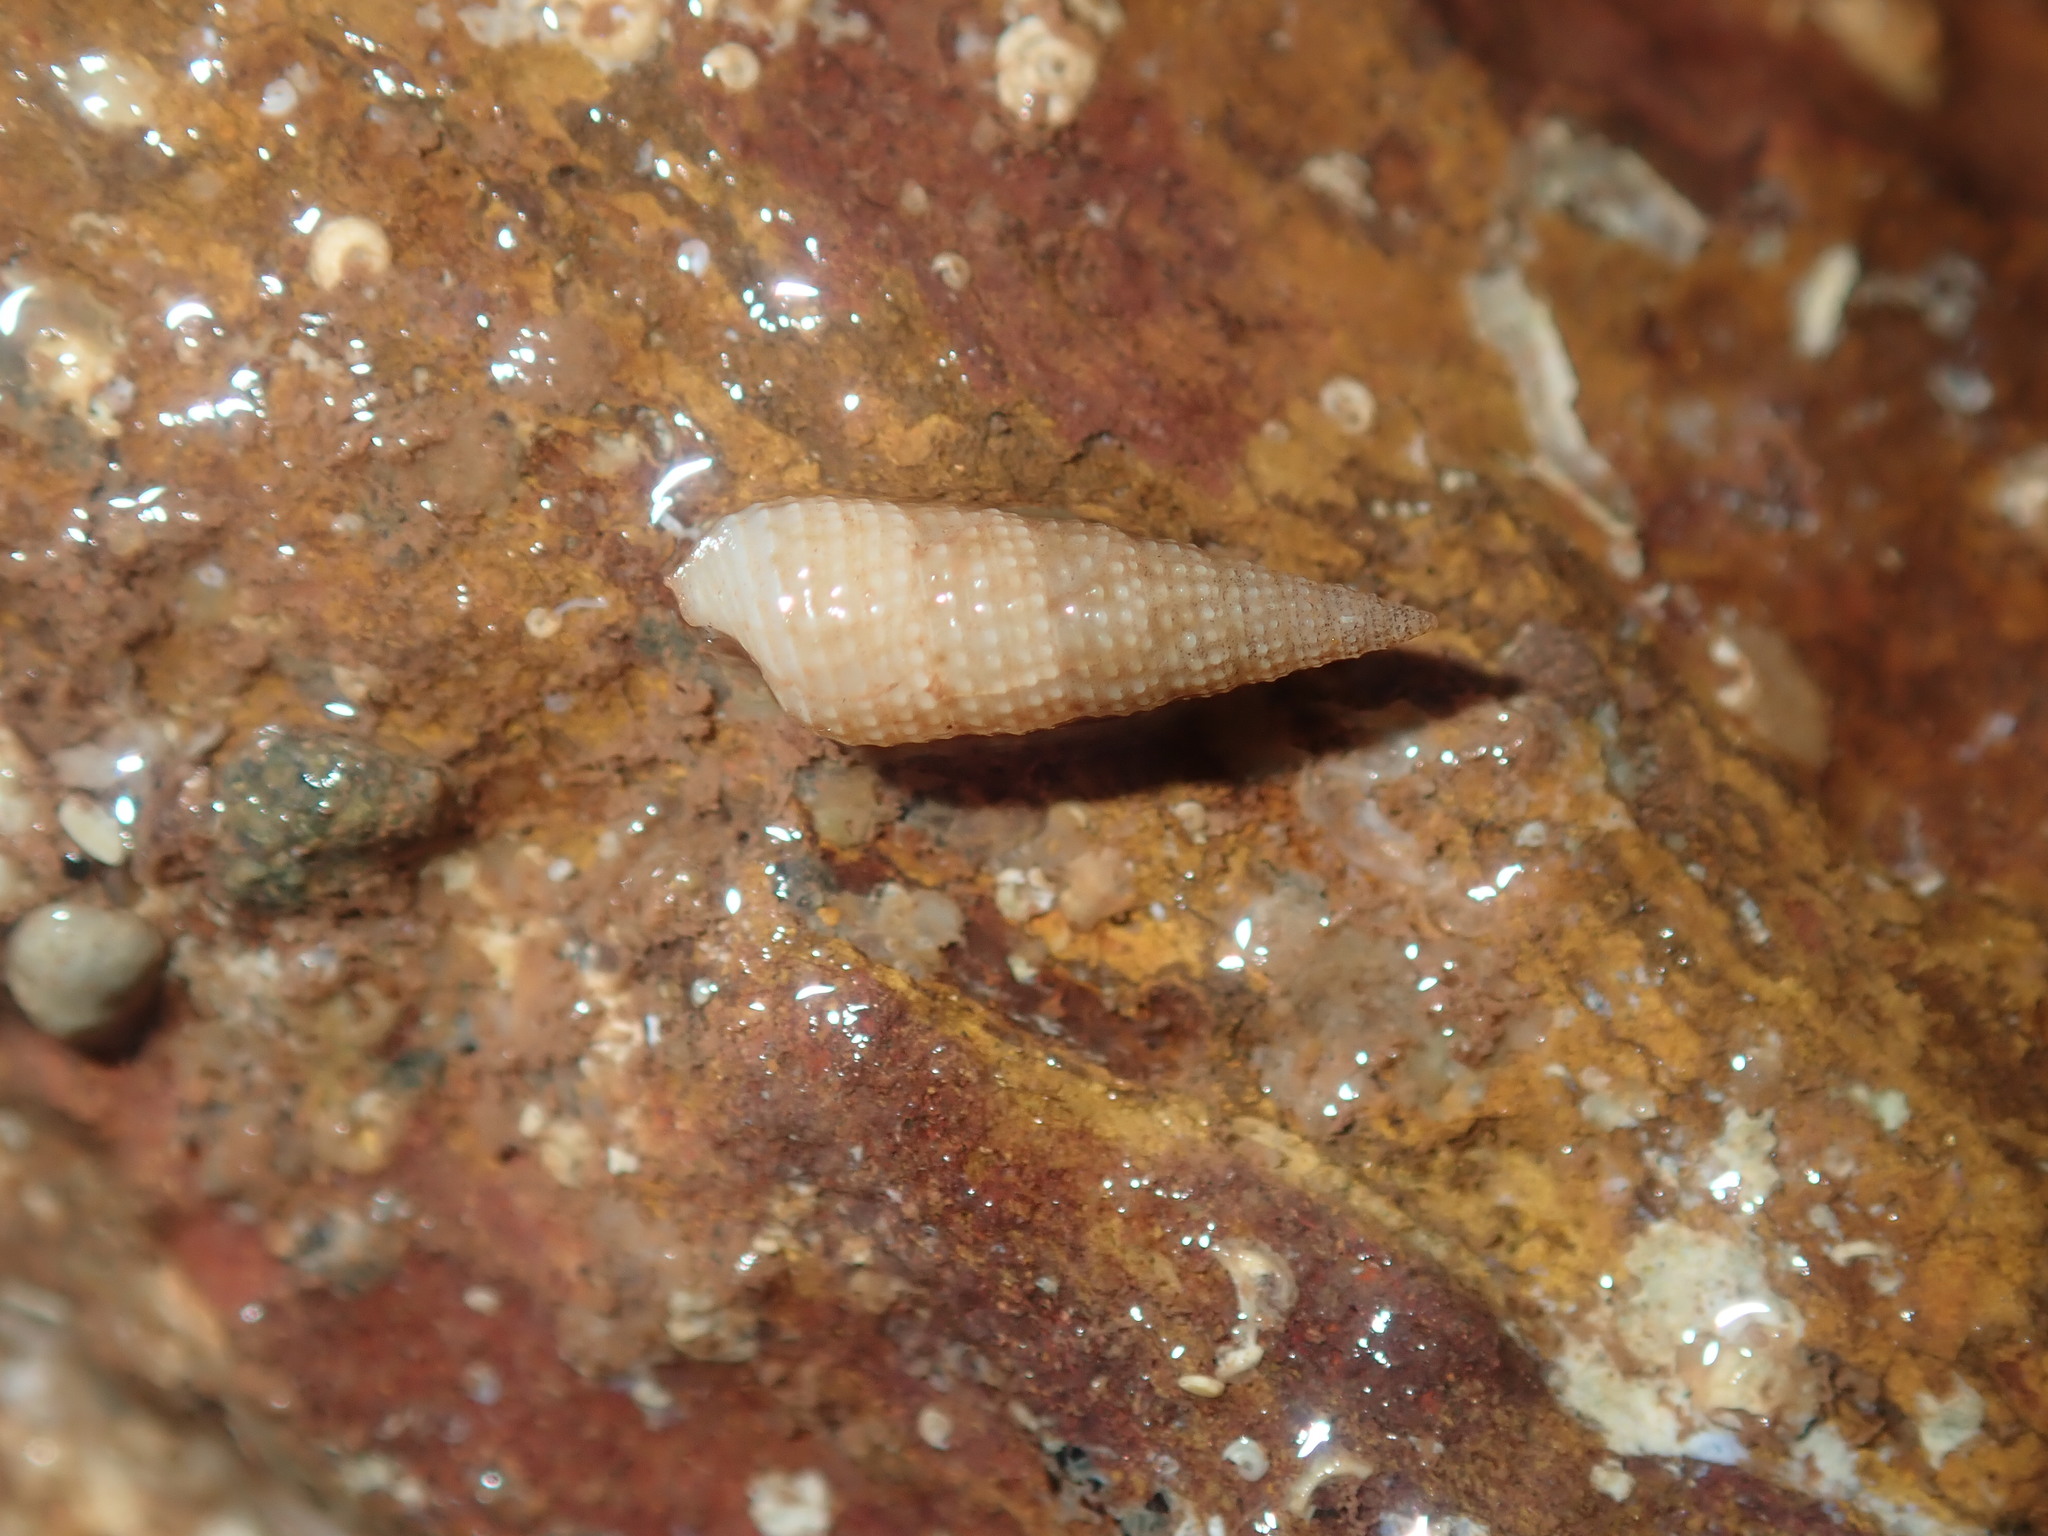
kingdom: Animalia
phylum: Mollusca
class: Gastropoda
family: Cerithiidae
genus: Cacozeliana
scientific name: Cacozeliana granarium
